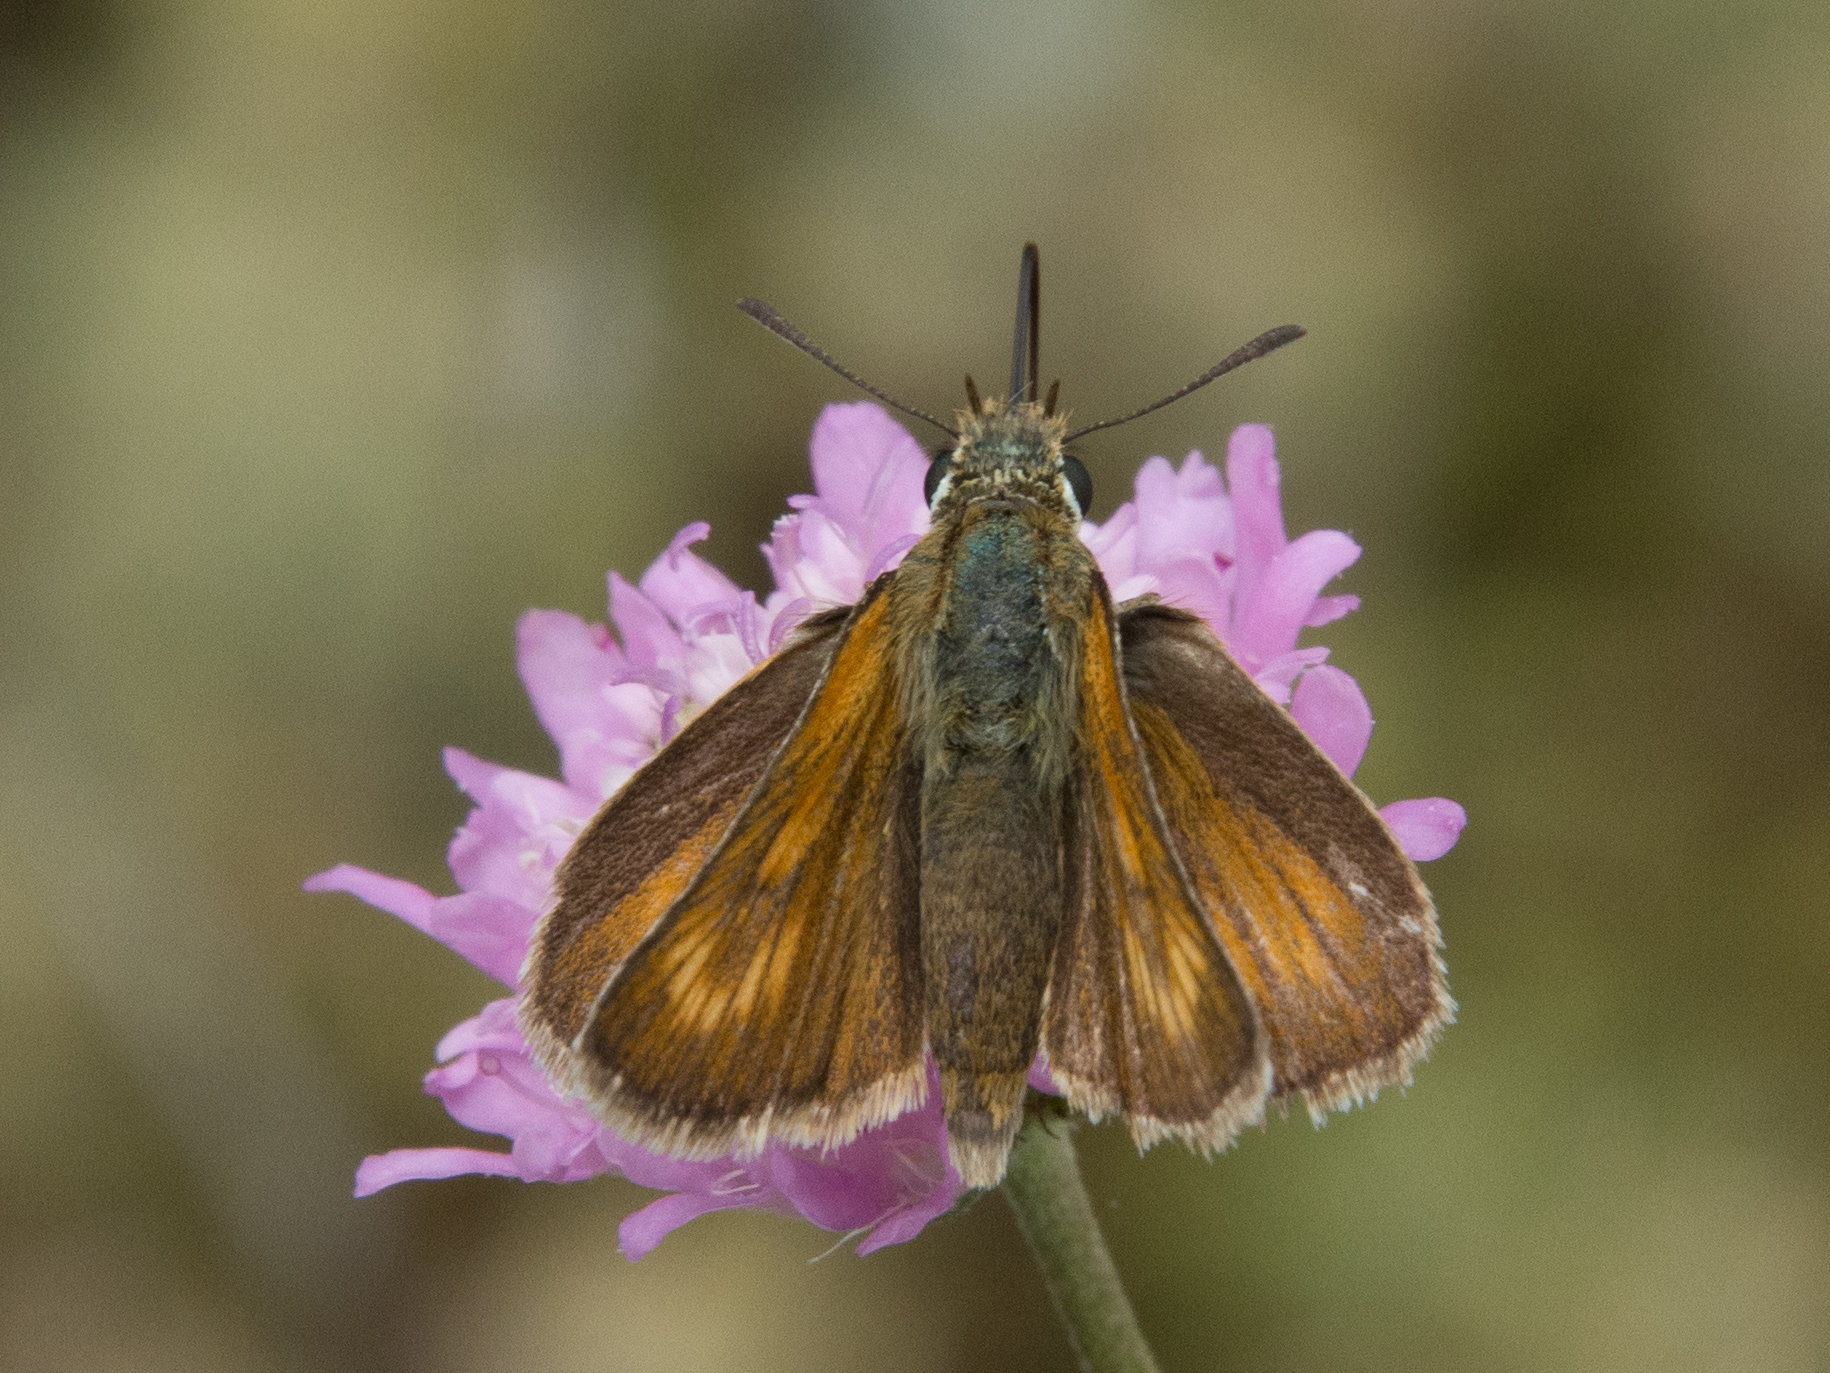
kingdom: Animalia
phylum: Arthropoda
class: Insecta
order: Lepidoptera
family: Hesperiidae
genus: Thymelicus
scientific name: Thymelicus acteon
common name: Lulworth skipper
